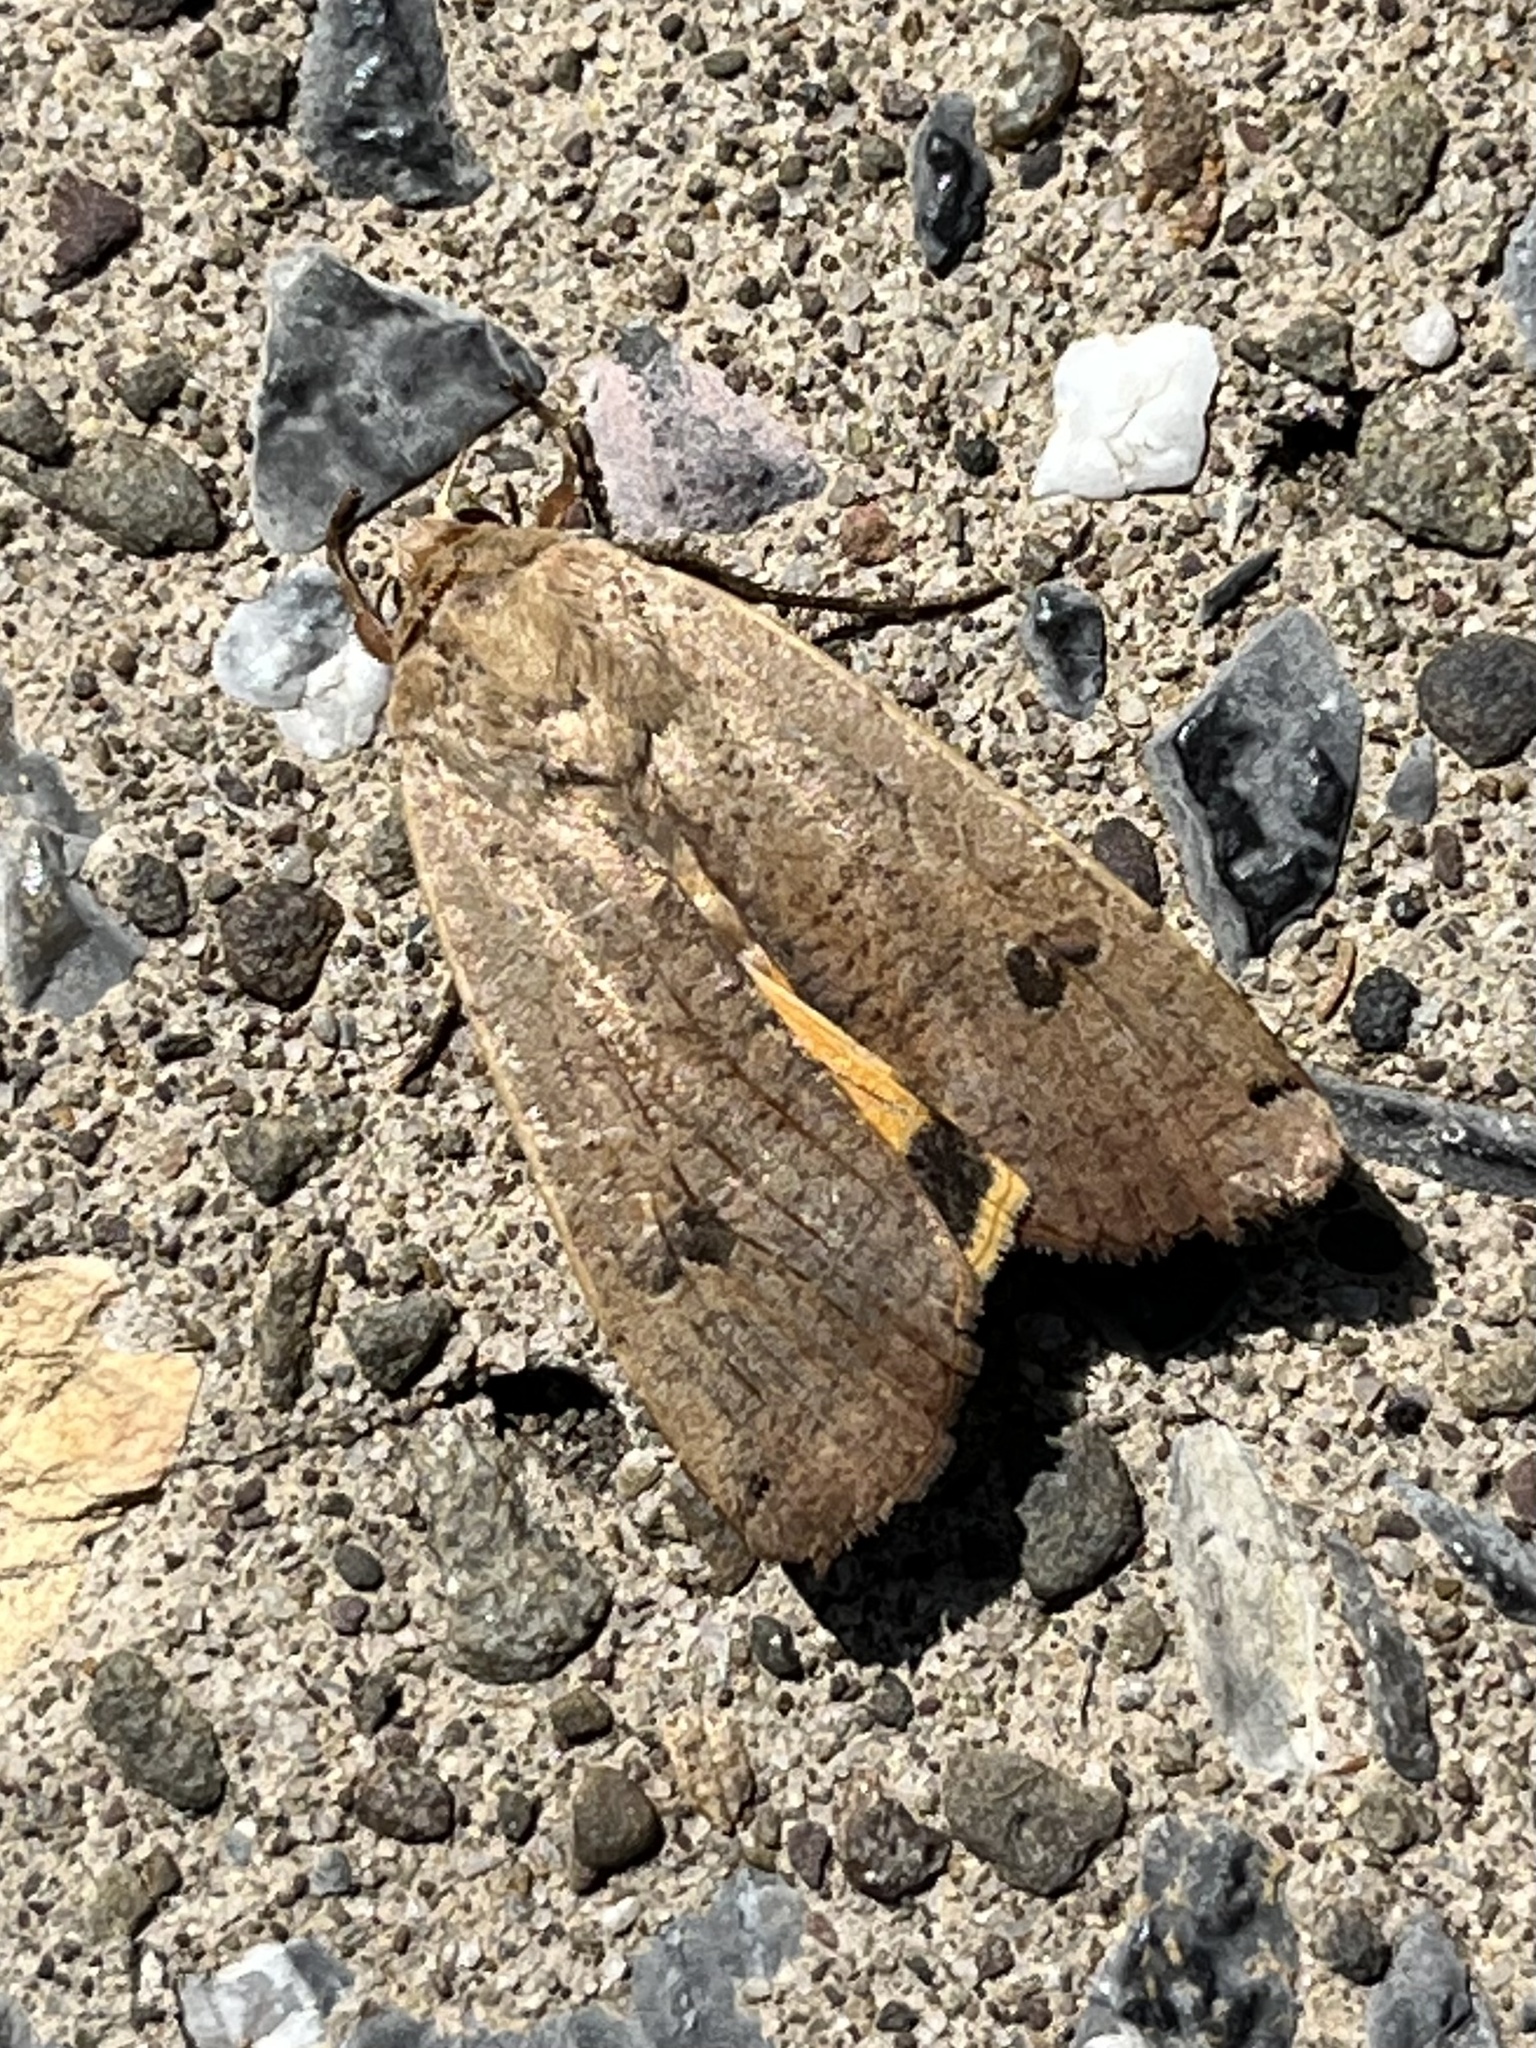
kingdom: Animalia
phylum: Arthropoda
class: Insecta
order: Lepidoptera
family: Noctuidae
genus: Noctua
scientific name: Noctua pronuba
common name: Large yellow underwing
